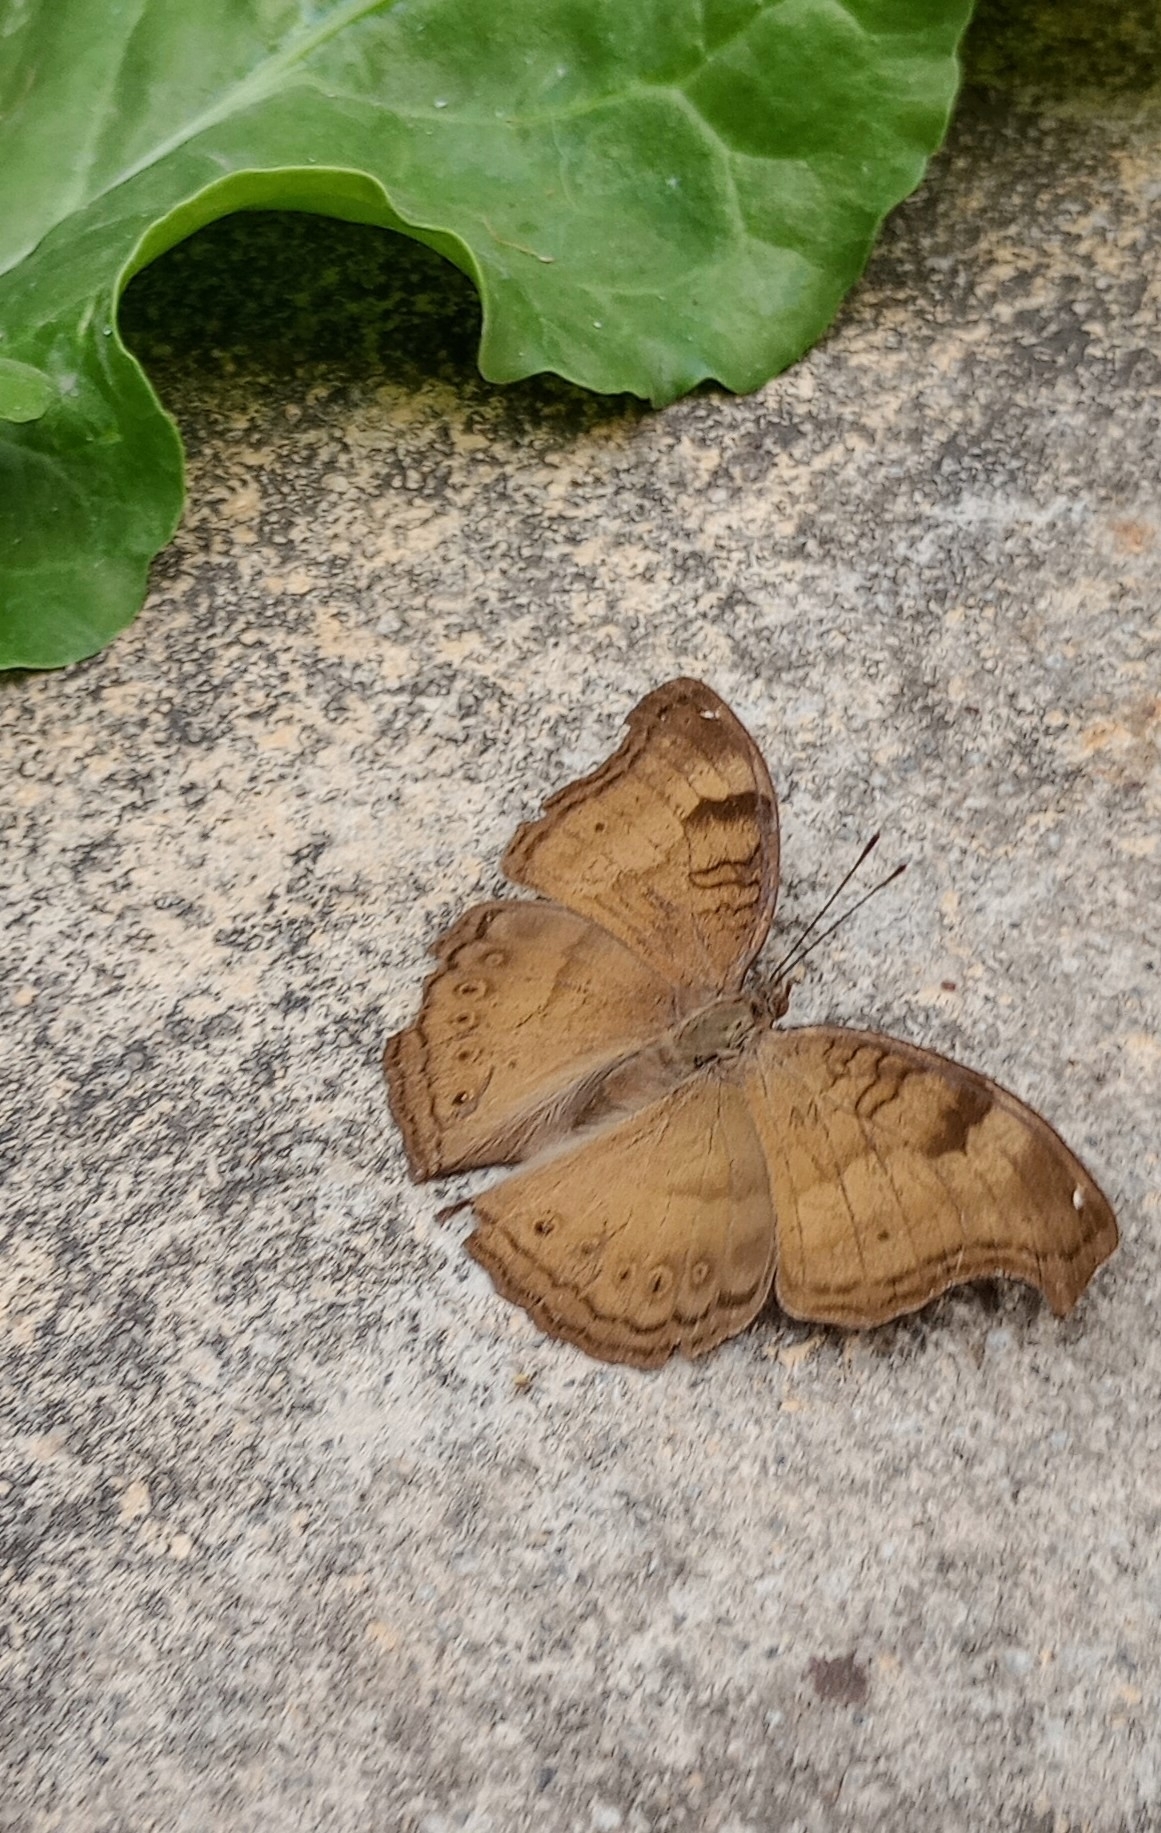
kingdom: Animalia
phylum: Arthropoda
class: Insecta
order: Lepidoptera
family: Nymphalidae
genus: Junonia
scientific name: Junonia iphita
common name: Chocolate pansy
